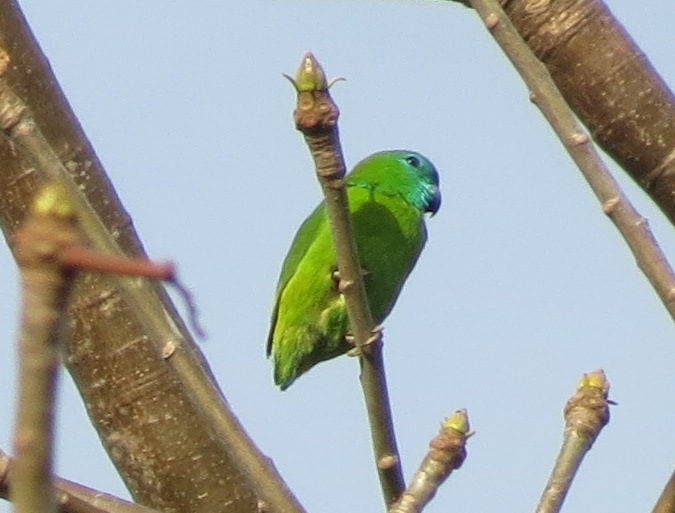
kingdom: Animalia
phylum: Chordata
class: Aves
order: Psittaciformes
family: Psittacidae
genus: Bolbopsittacus
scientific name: Bolbopsittacus lunulatus
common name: Guaiabero
